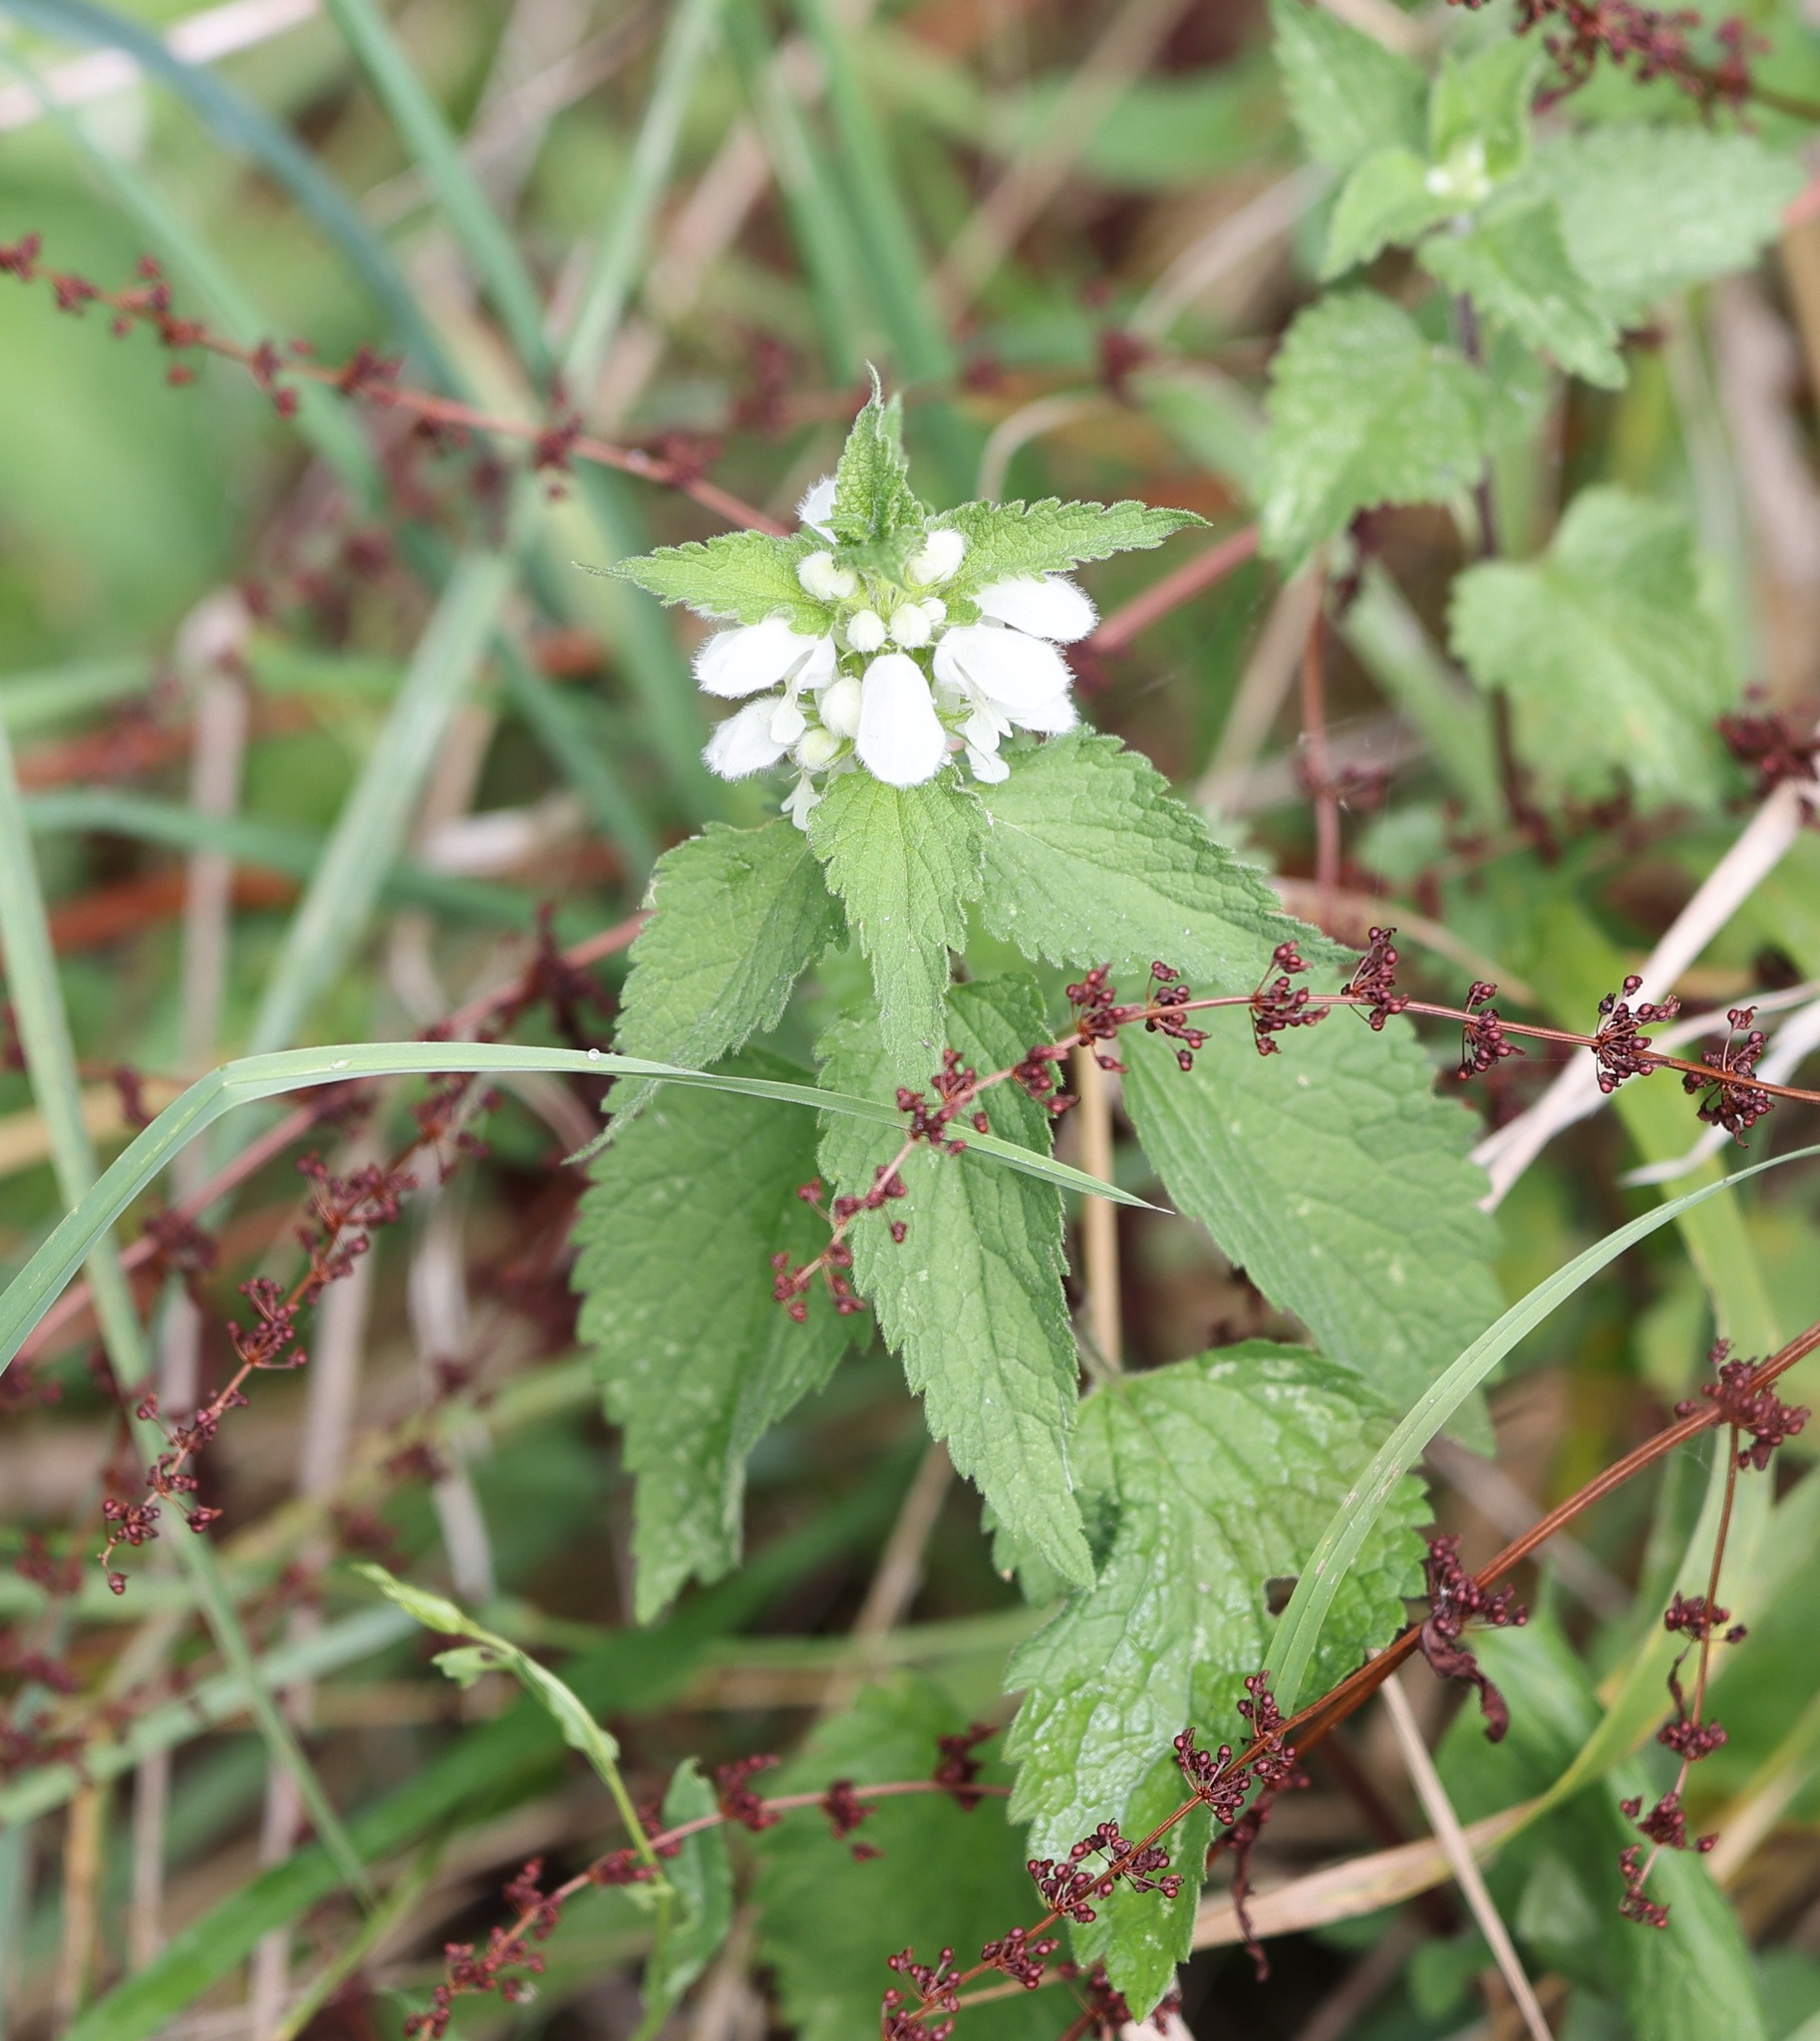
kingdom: Plantae
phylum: Tracheophyta
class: Magnoliopsida
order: Lamiales
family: Lamiaceae
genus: Lamium
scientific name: Lamium album
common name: White dead-nettle
